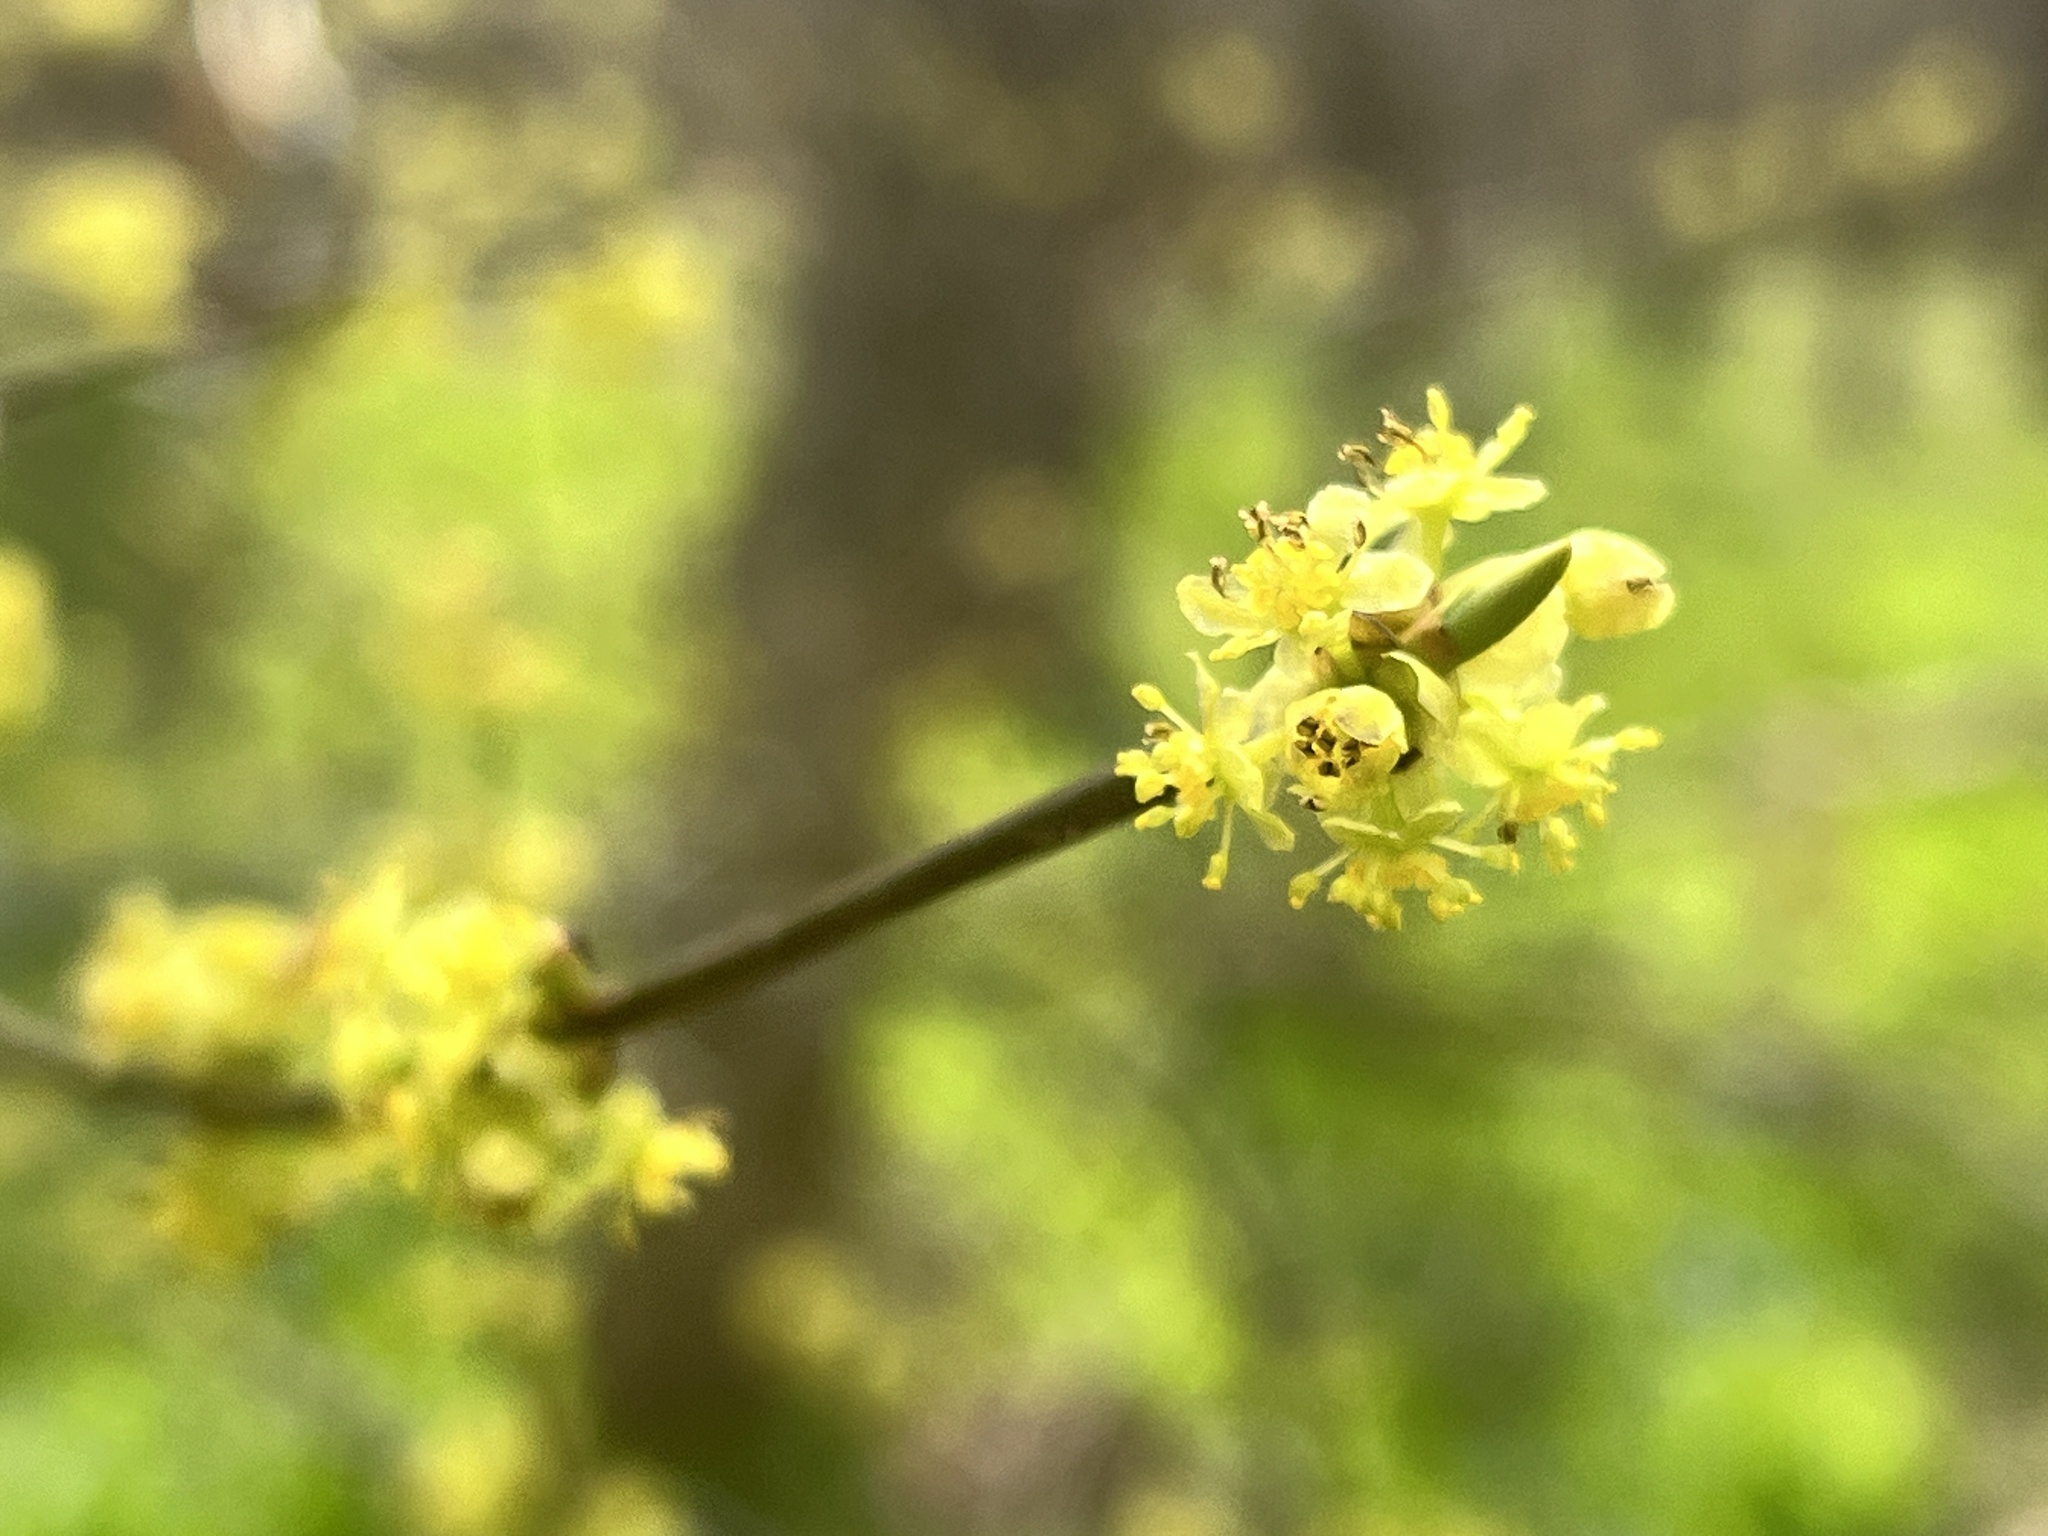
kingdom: Plantae
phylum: Tracheophyta
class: Magnoliopsida
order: Laurales
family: Lauraceae
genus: Lindera
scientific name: Lindera benzoin
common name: Spicebush
